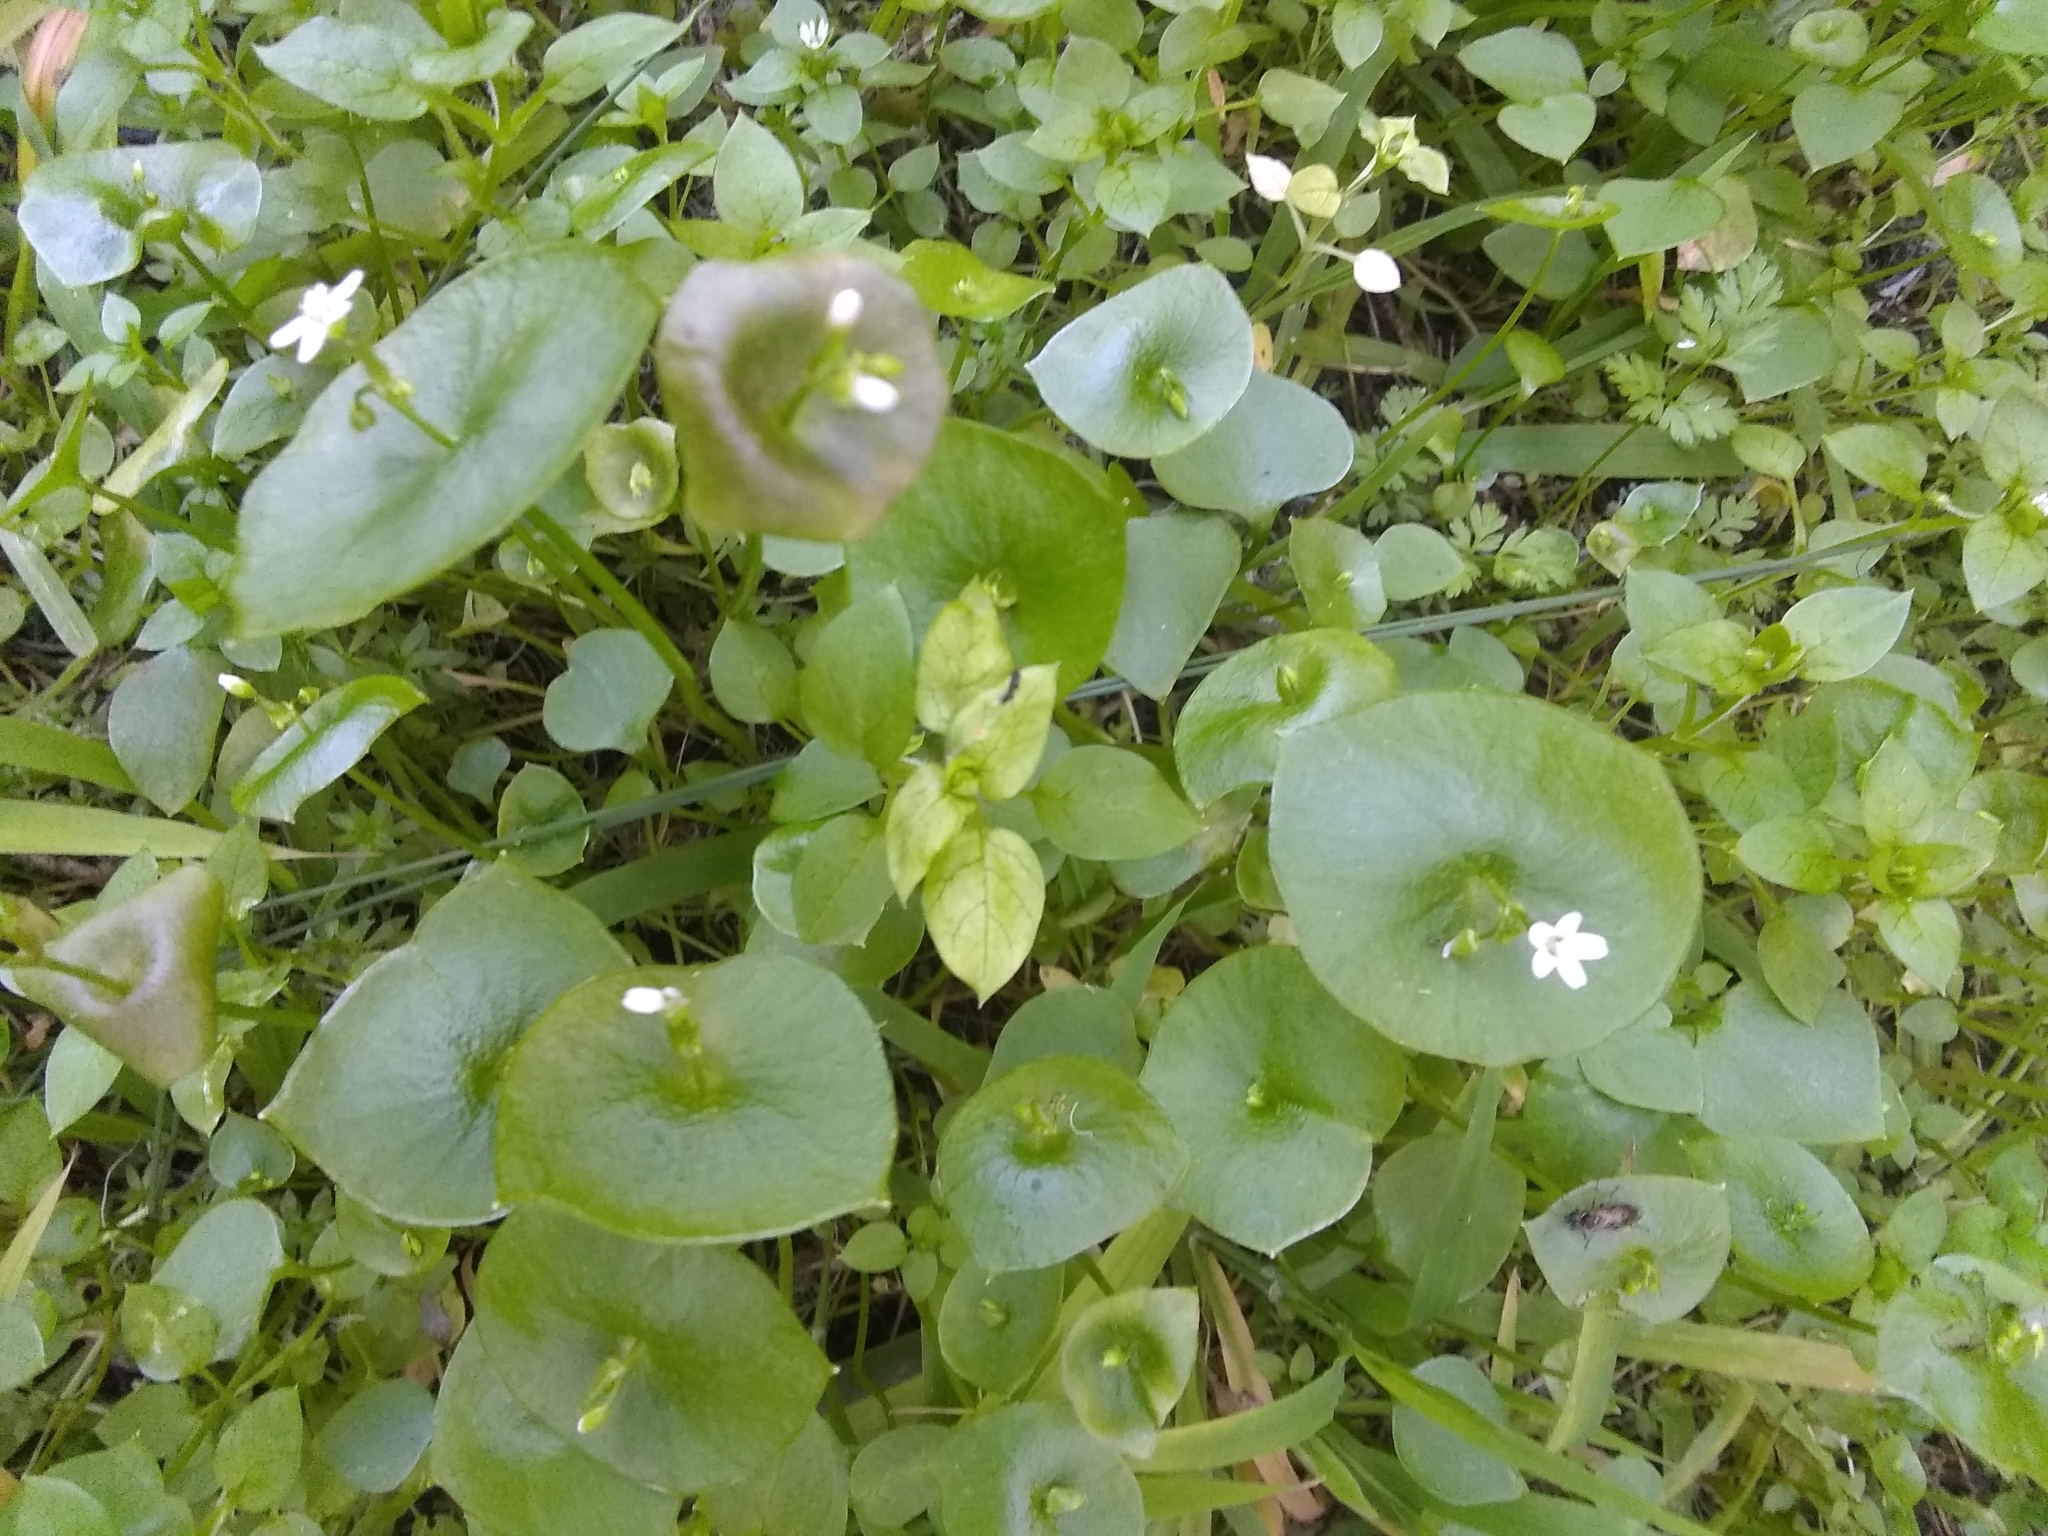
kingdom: Plantae
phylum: Tracheophyta
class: Magnoliopsida
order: Caryophyllales
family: Montiaceae
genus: Claytonia
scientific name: Claytonia perfoliata
